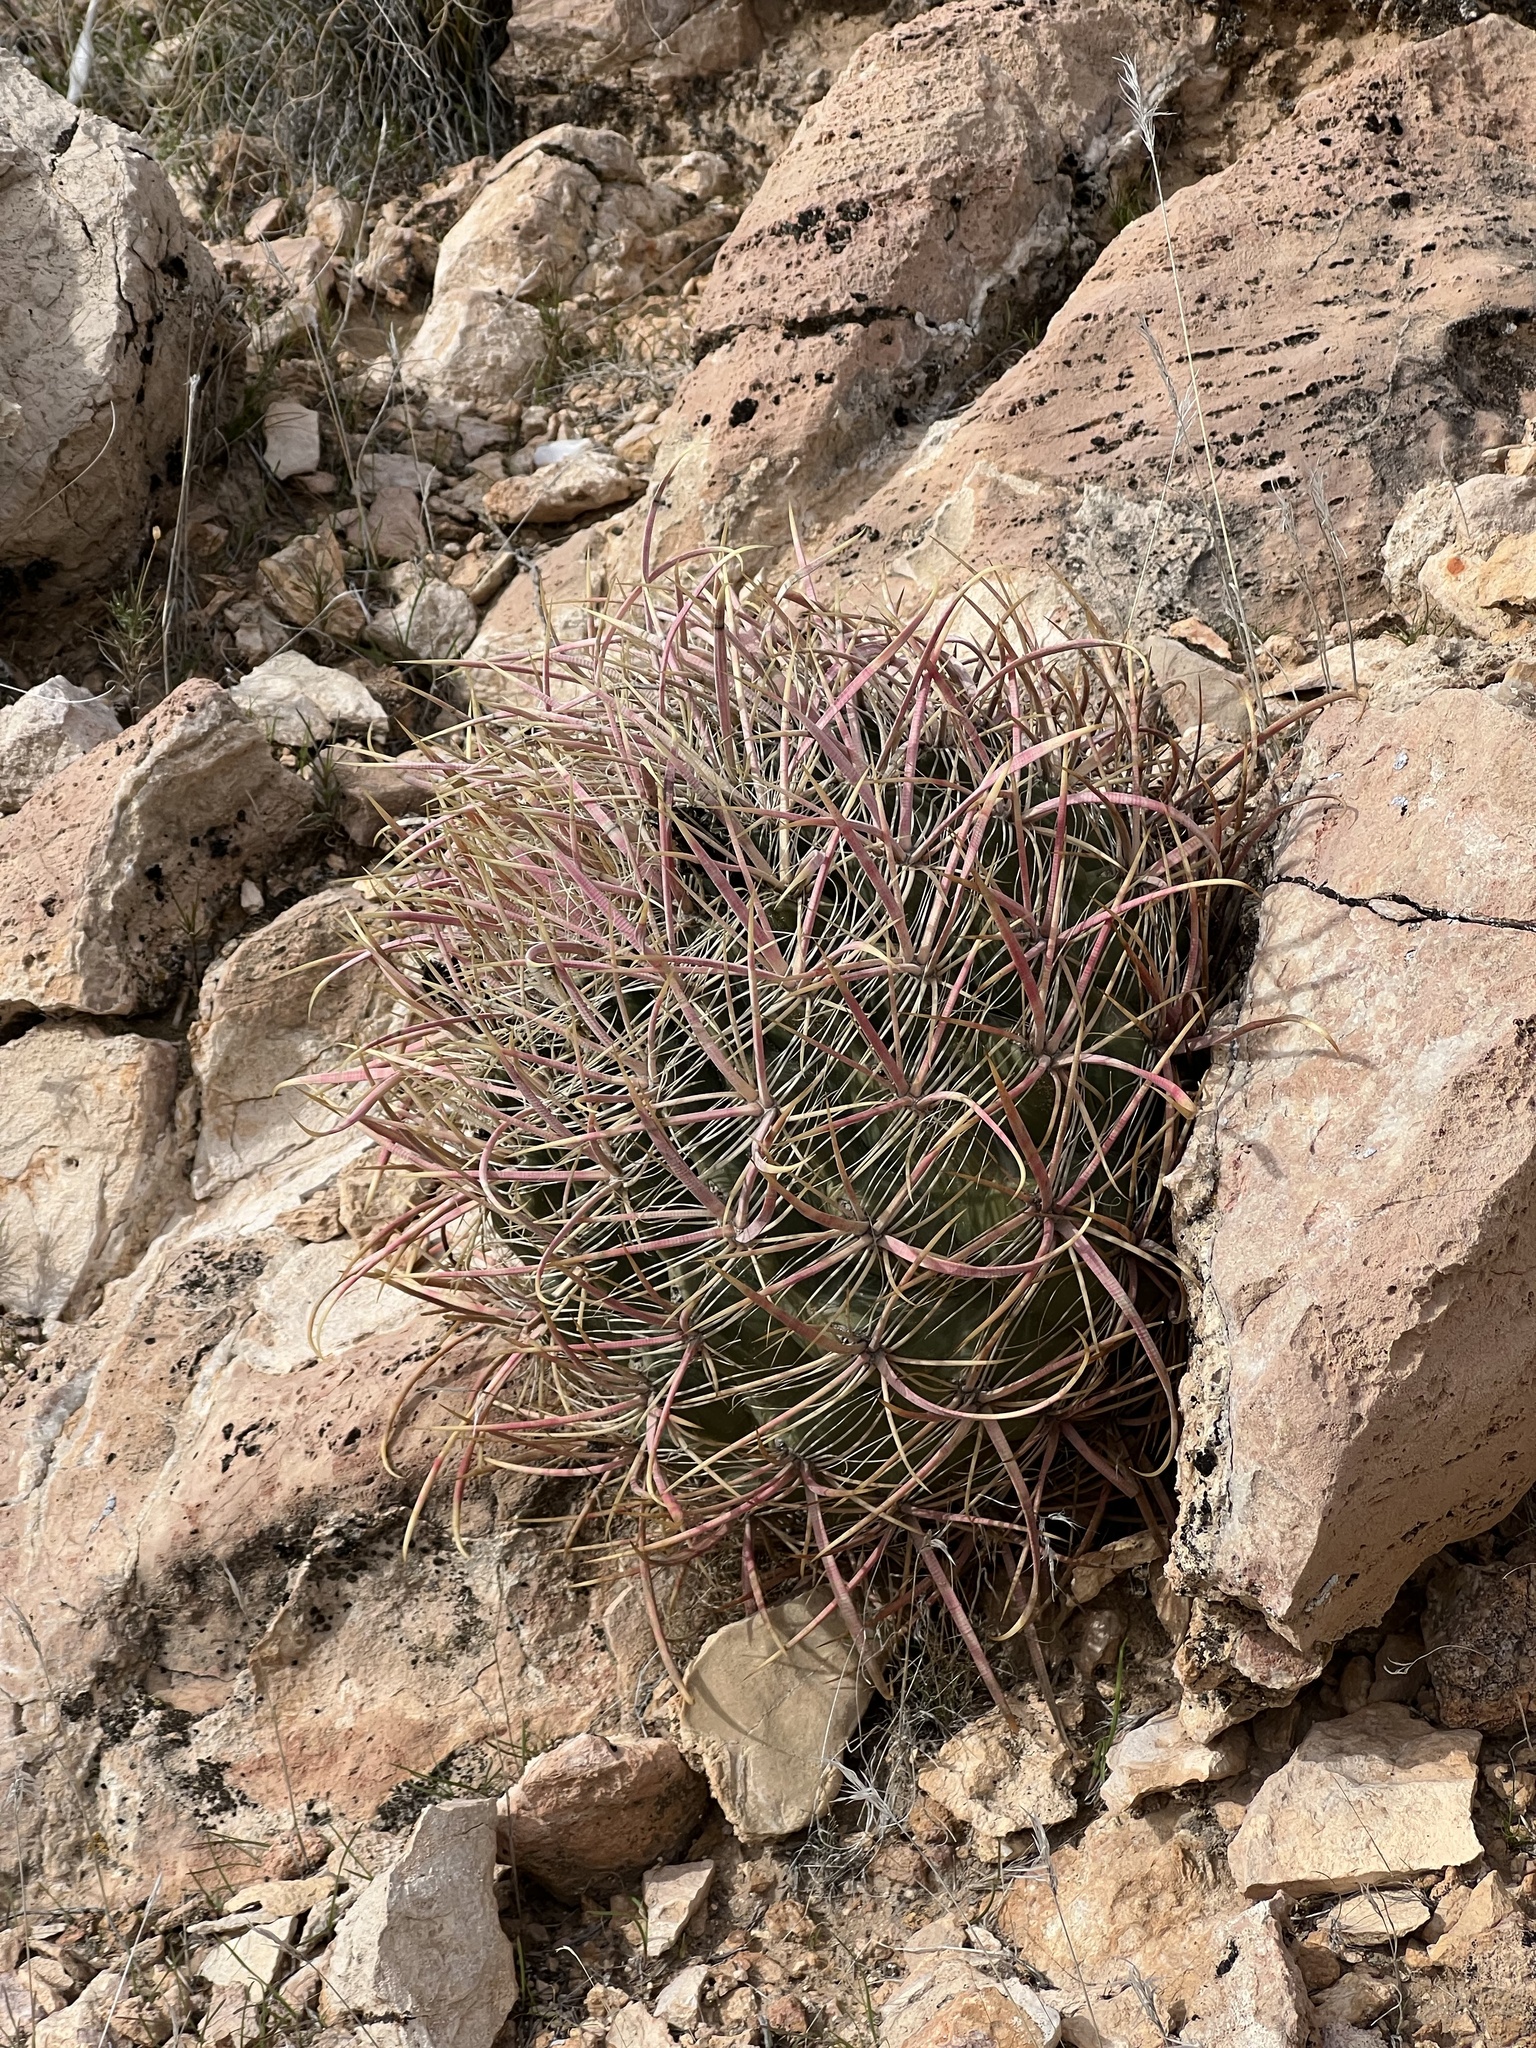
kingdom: Plantae
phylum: Tracheophyta
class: Magnoliopsida
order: Caryophyllales
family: Cactaceae
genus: Ferocactus
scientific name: Ferocactus cylindraceus
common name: California barrel cactus
